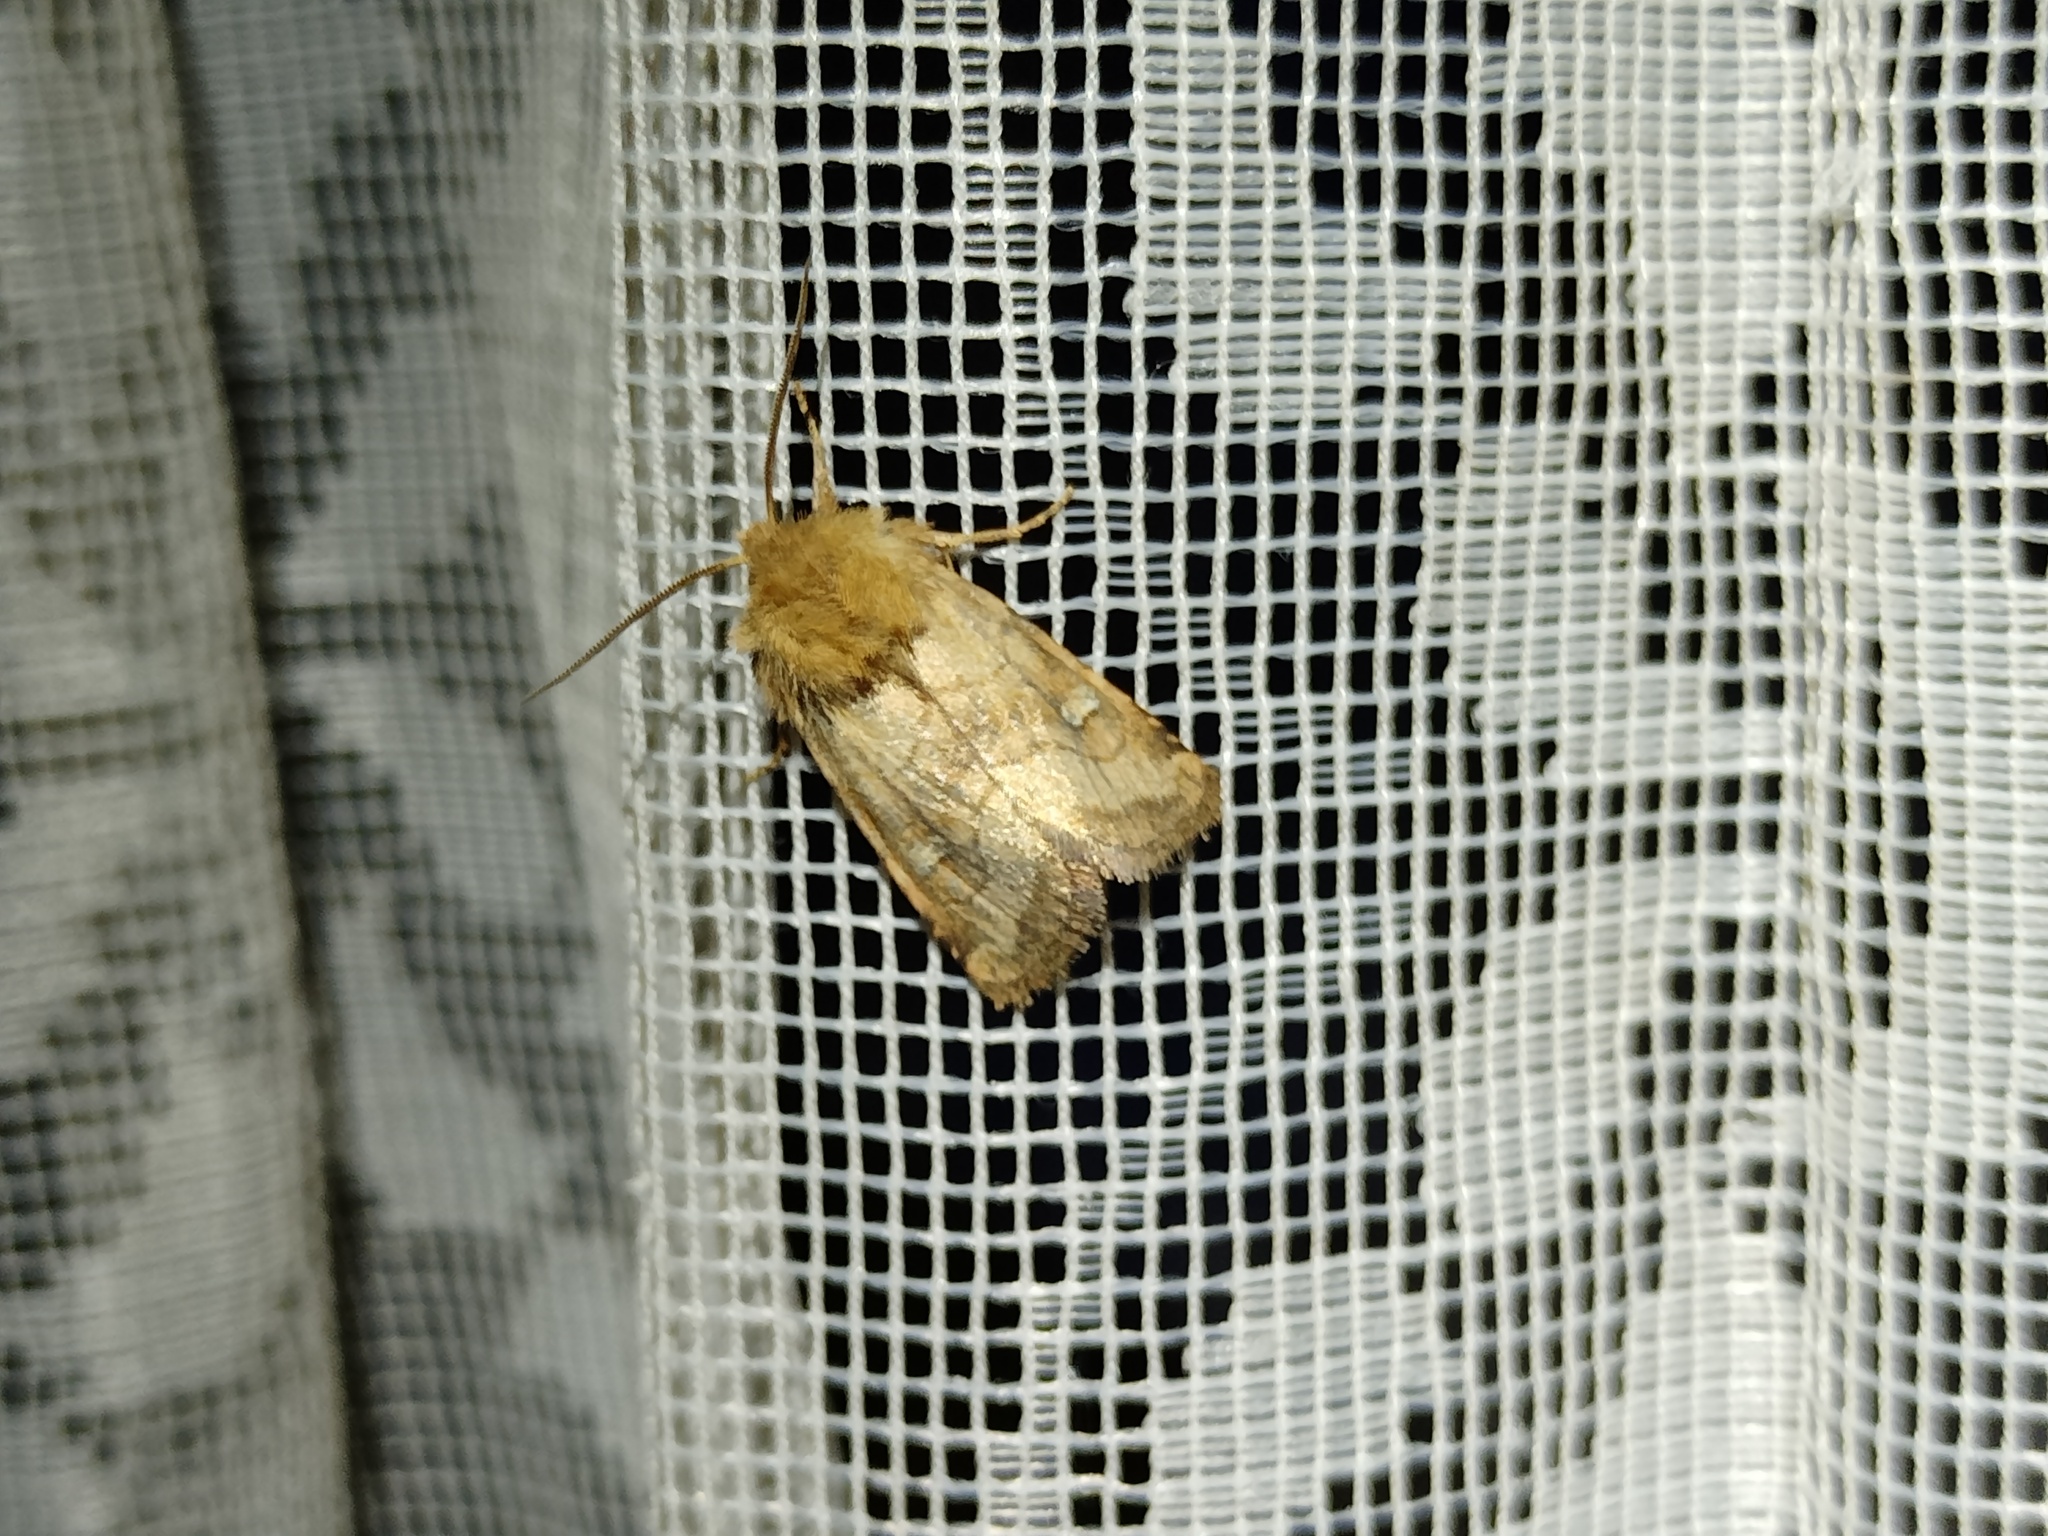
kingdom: Animalia
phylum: Arthropoda
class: Insecta
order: Lepidoptera
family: Noctuidae
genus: Lasionycta
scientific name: Lasionycta Eriopygodes imbecillus
